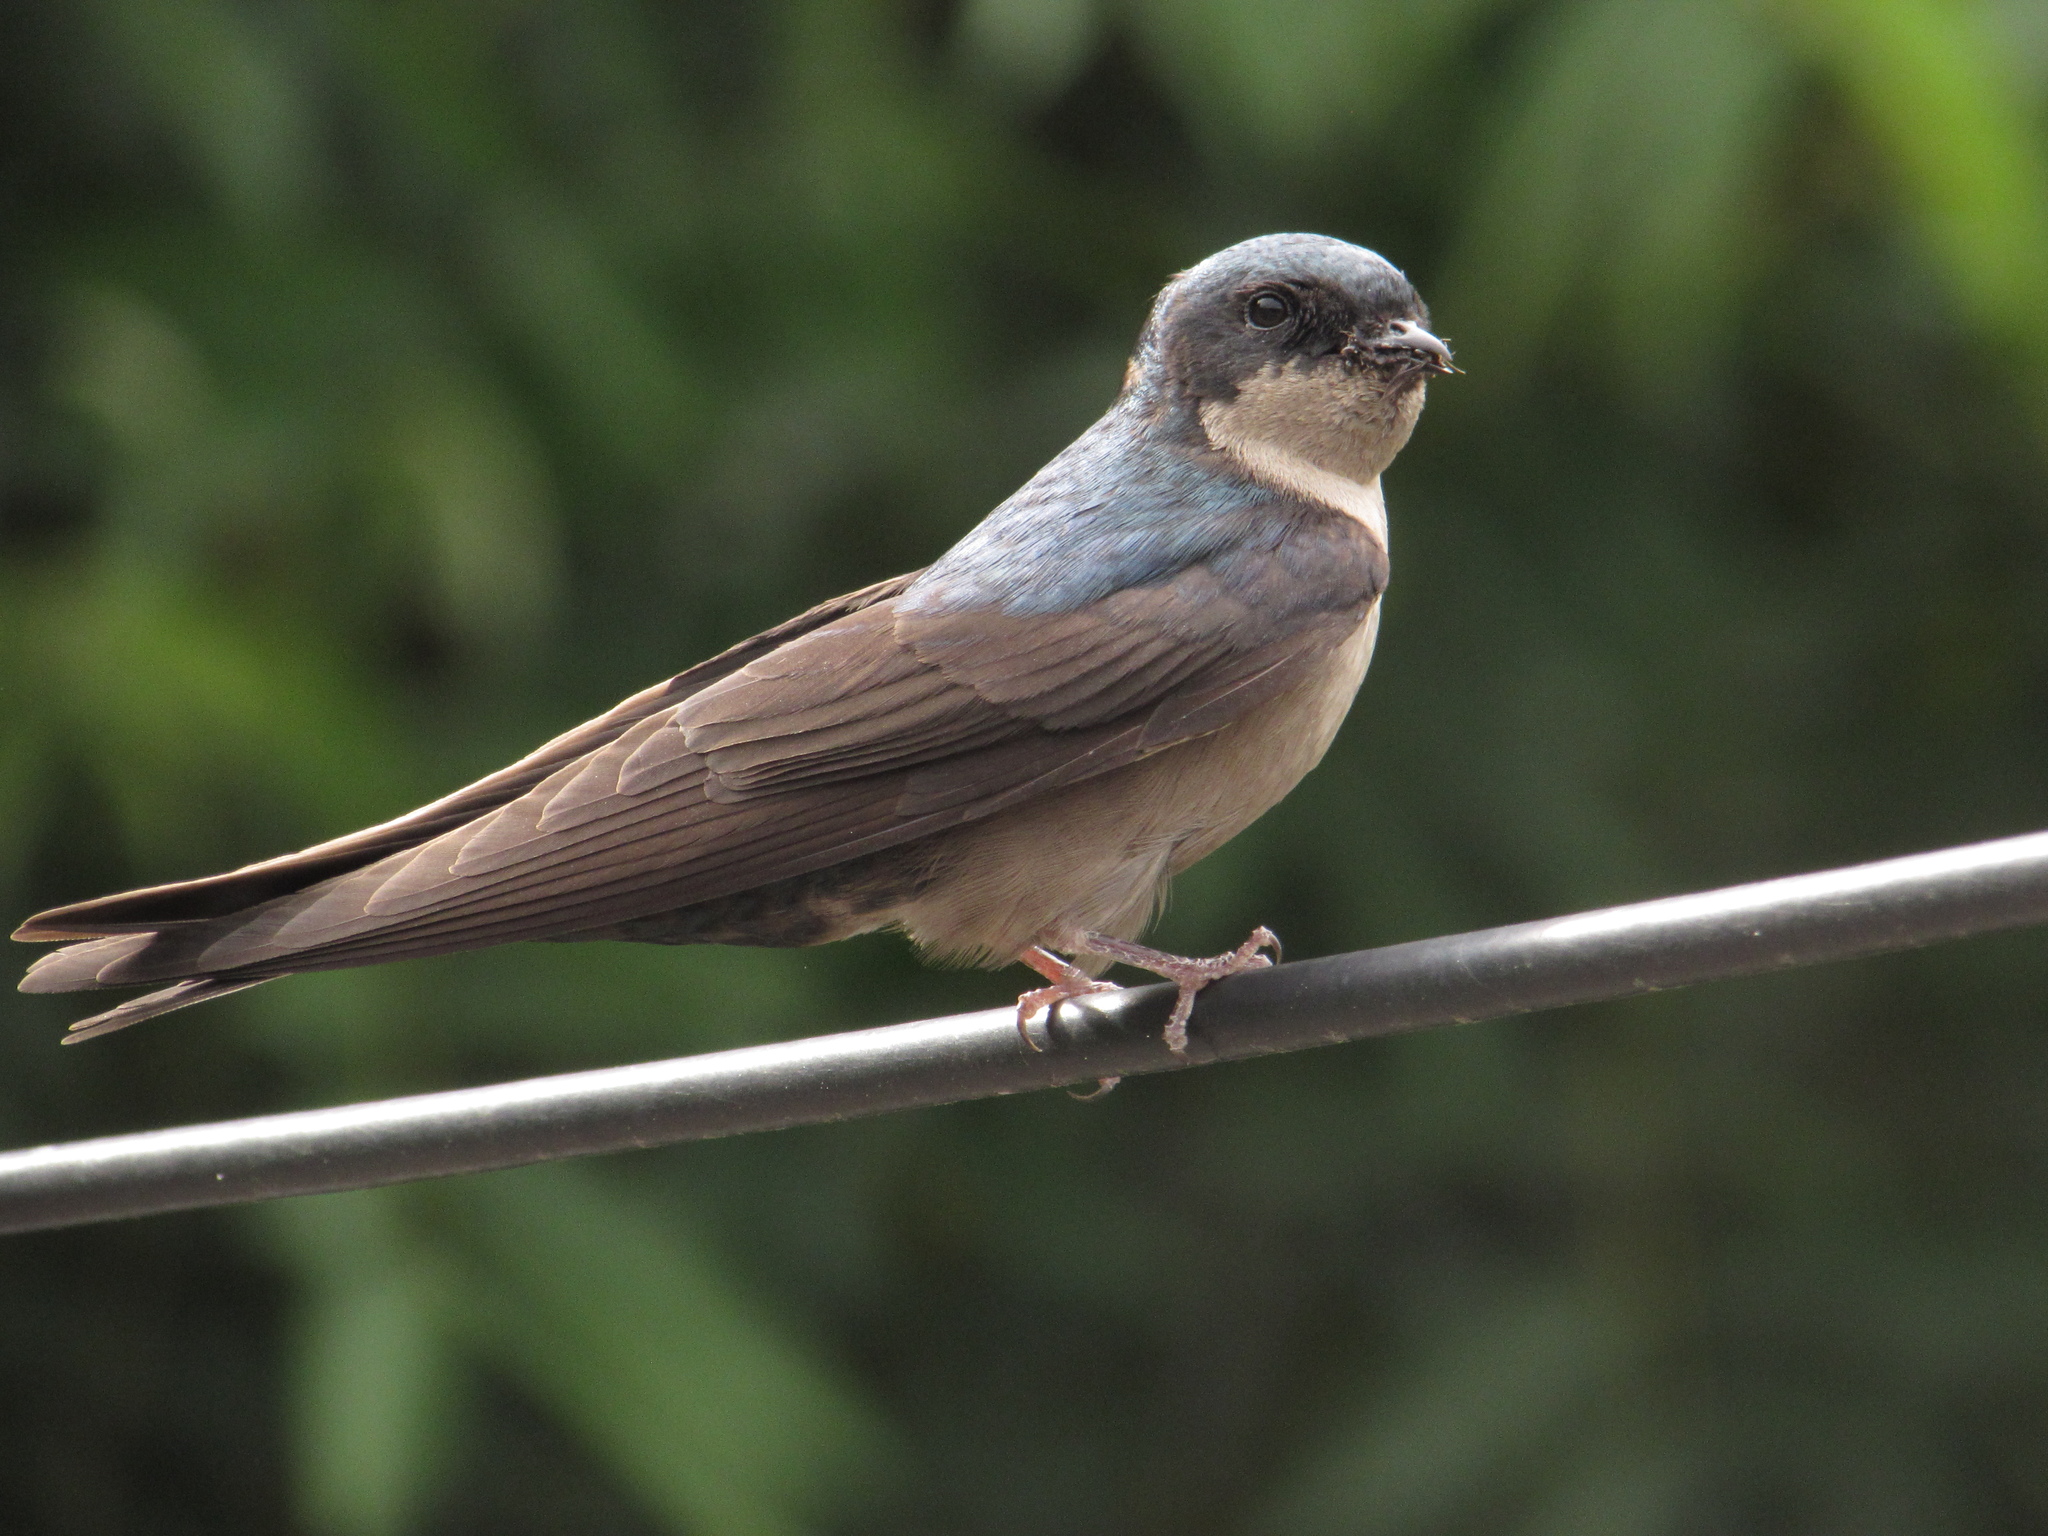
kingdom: Animalia
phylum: Chordata
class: Aves
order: Passeriformes
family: Hirundinidae
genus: Notiochelidon
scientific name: Notiochelidon murina
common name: Brown-bellied swallow
